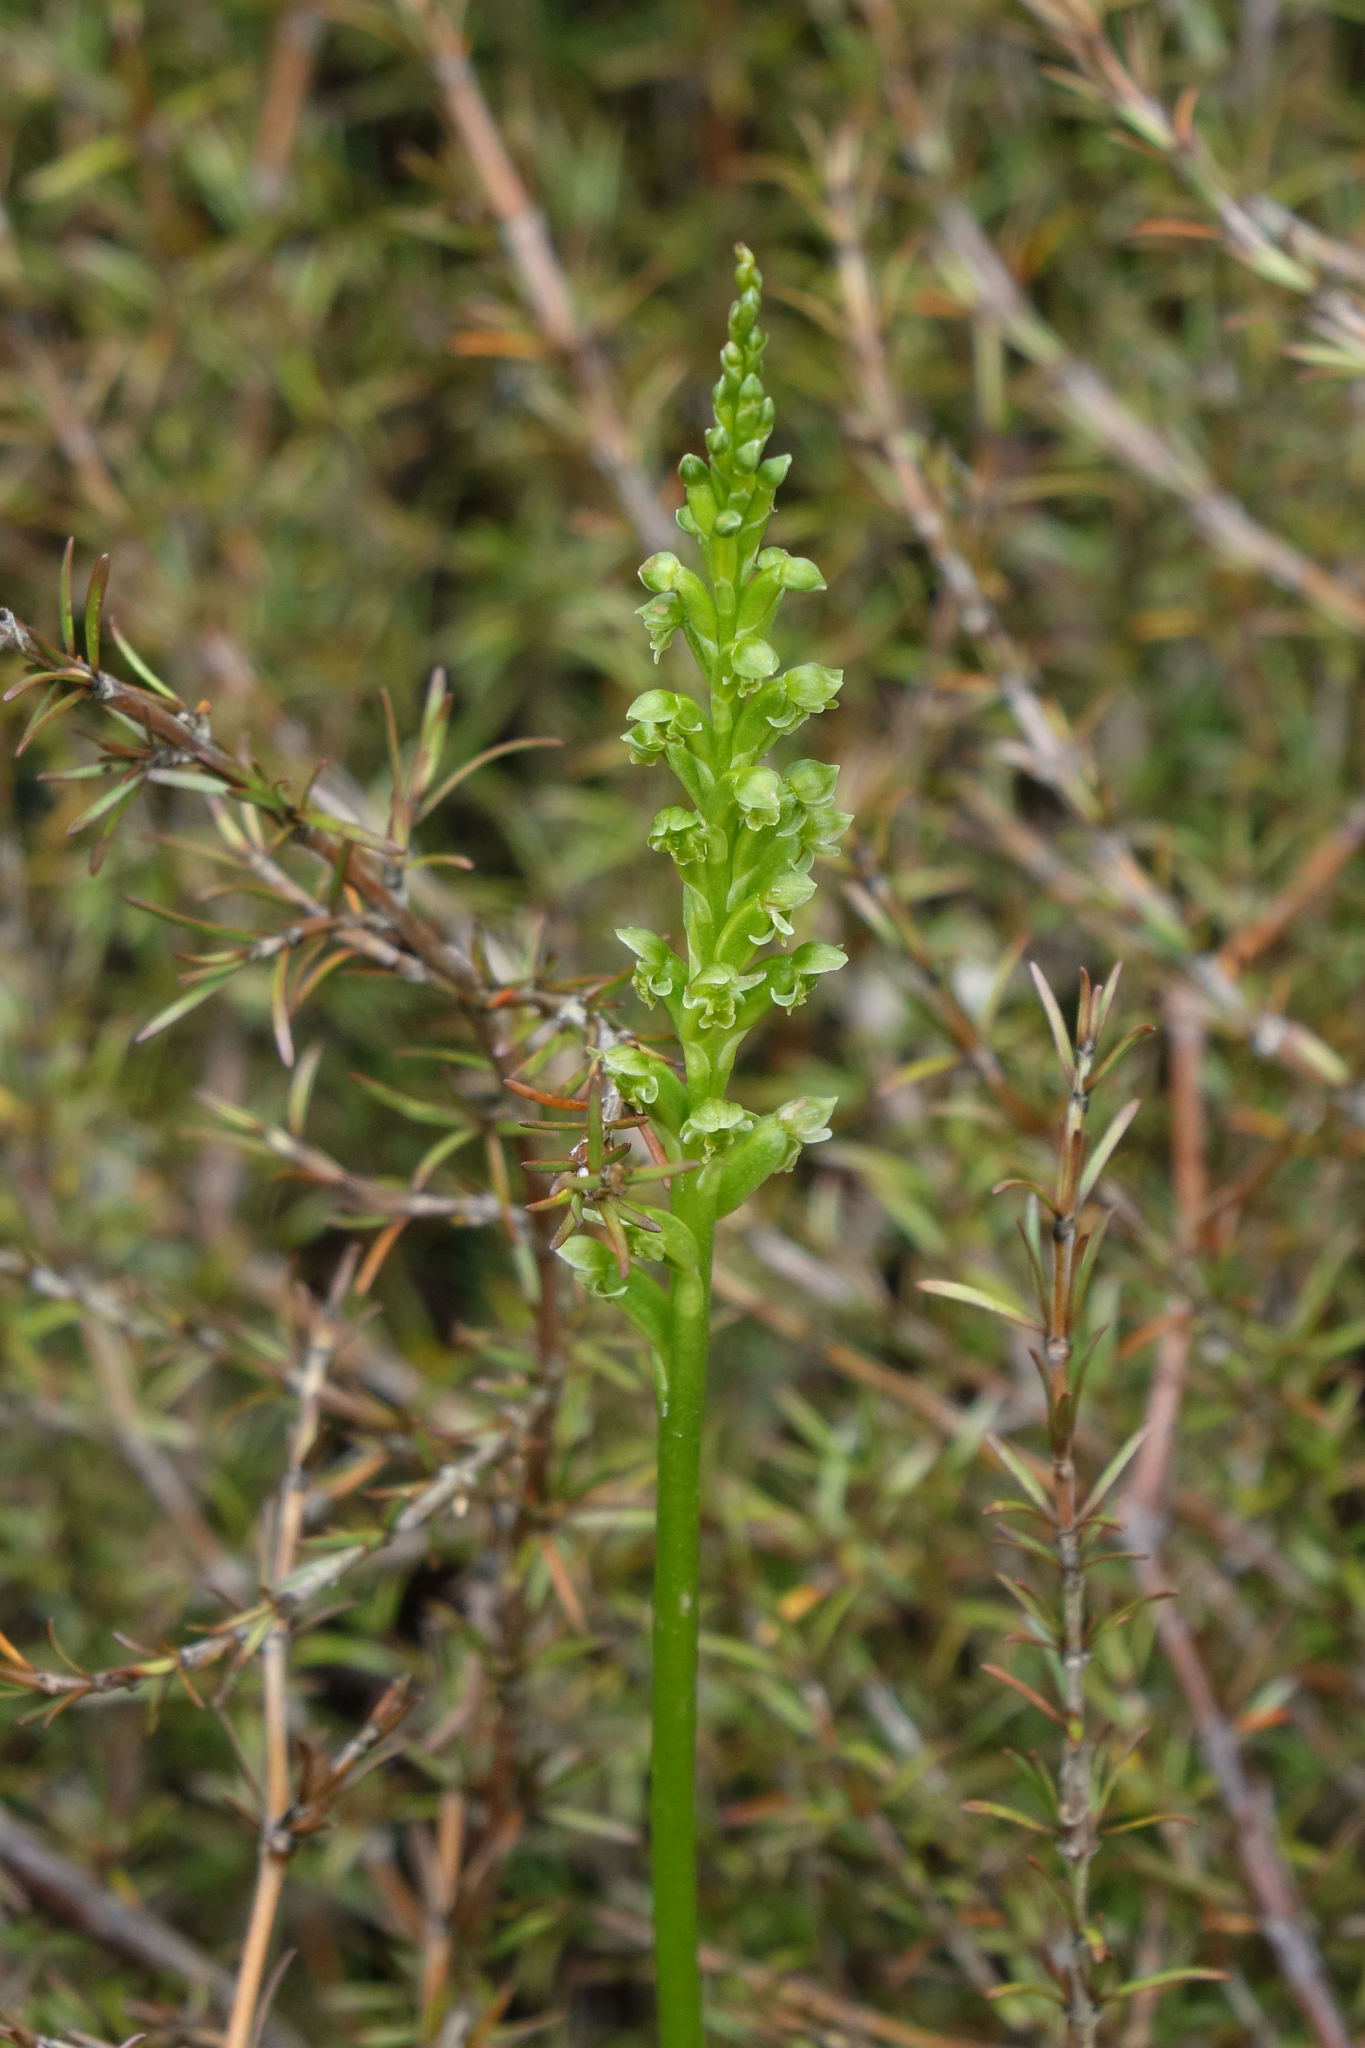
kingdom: Plantae
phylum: Tracheophyta
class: Liliopsida
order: Asparagales
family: Orchidaceae
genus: Microtis
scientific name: Microtis unifolia
